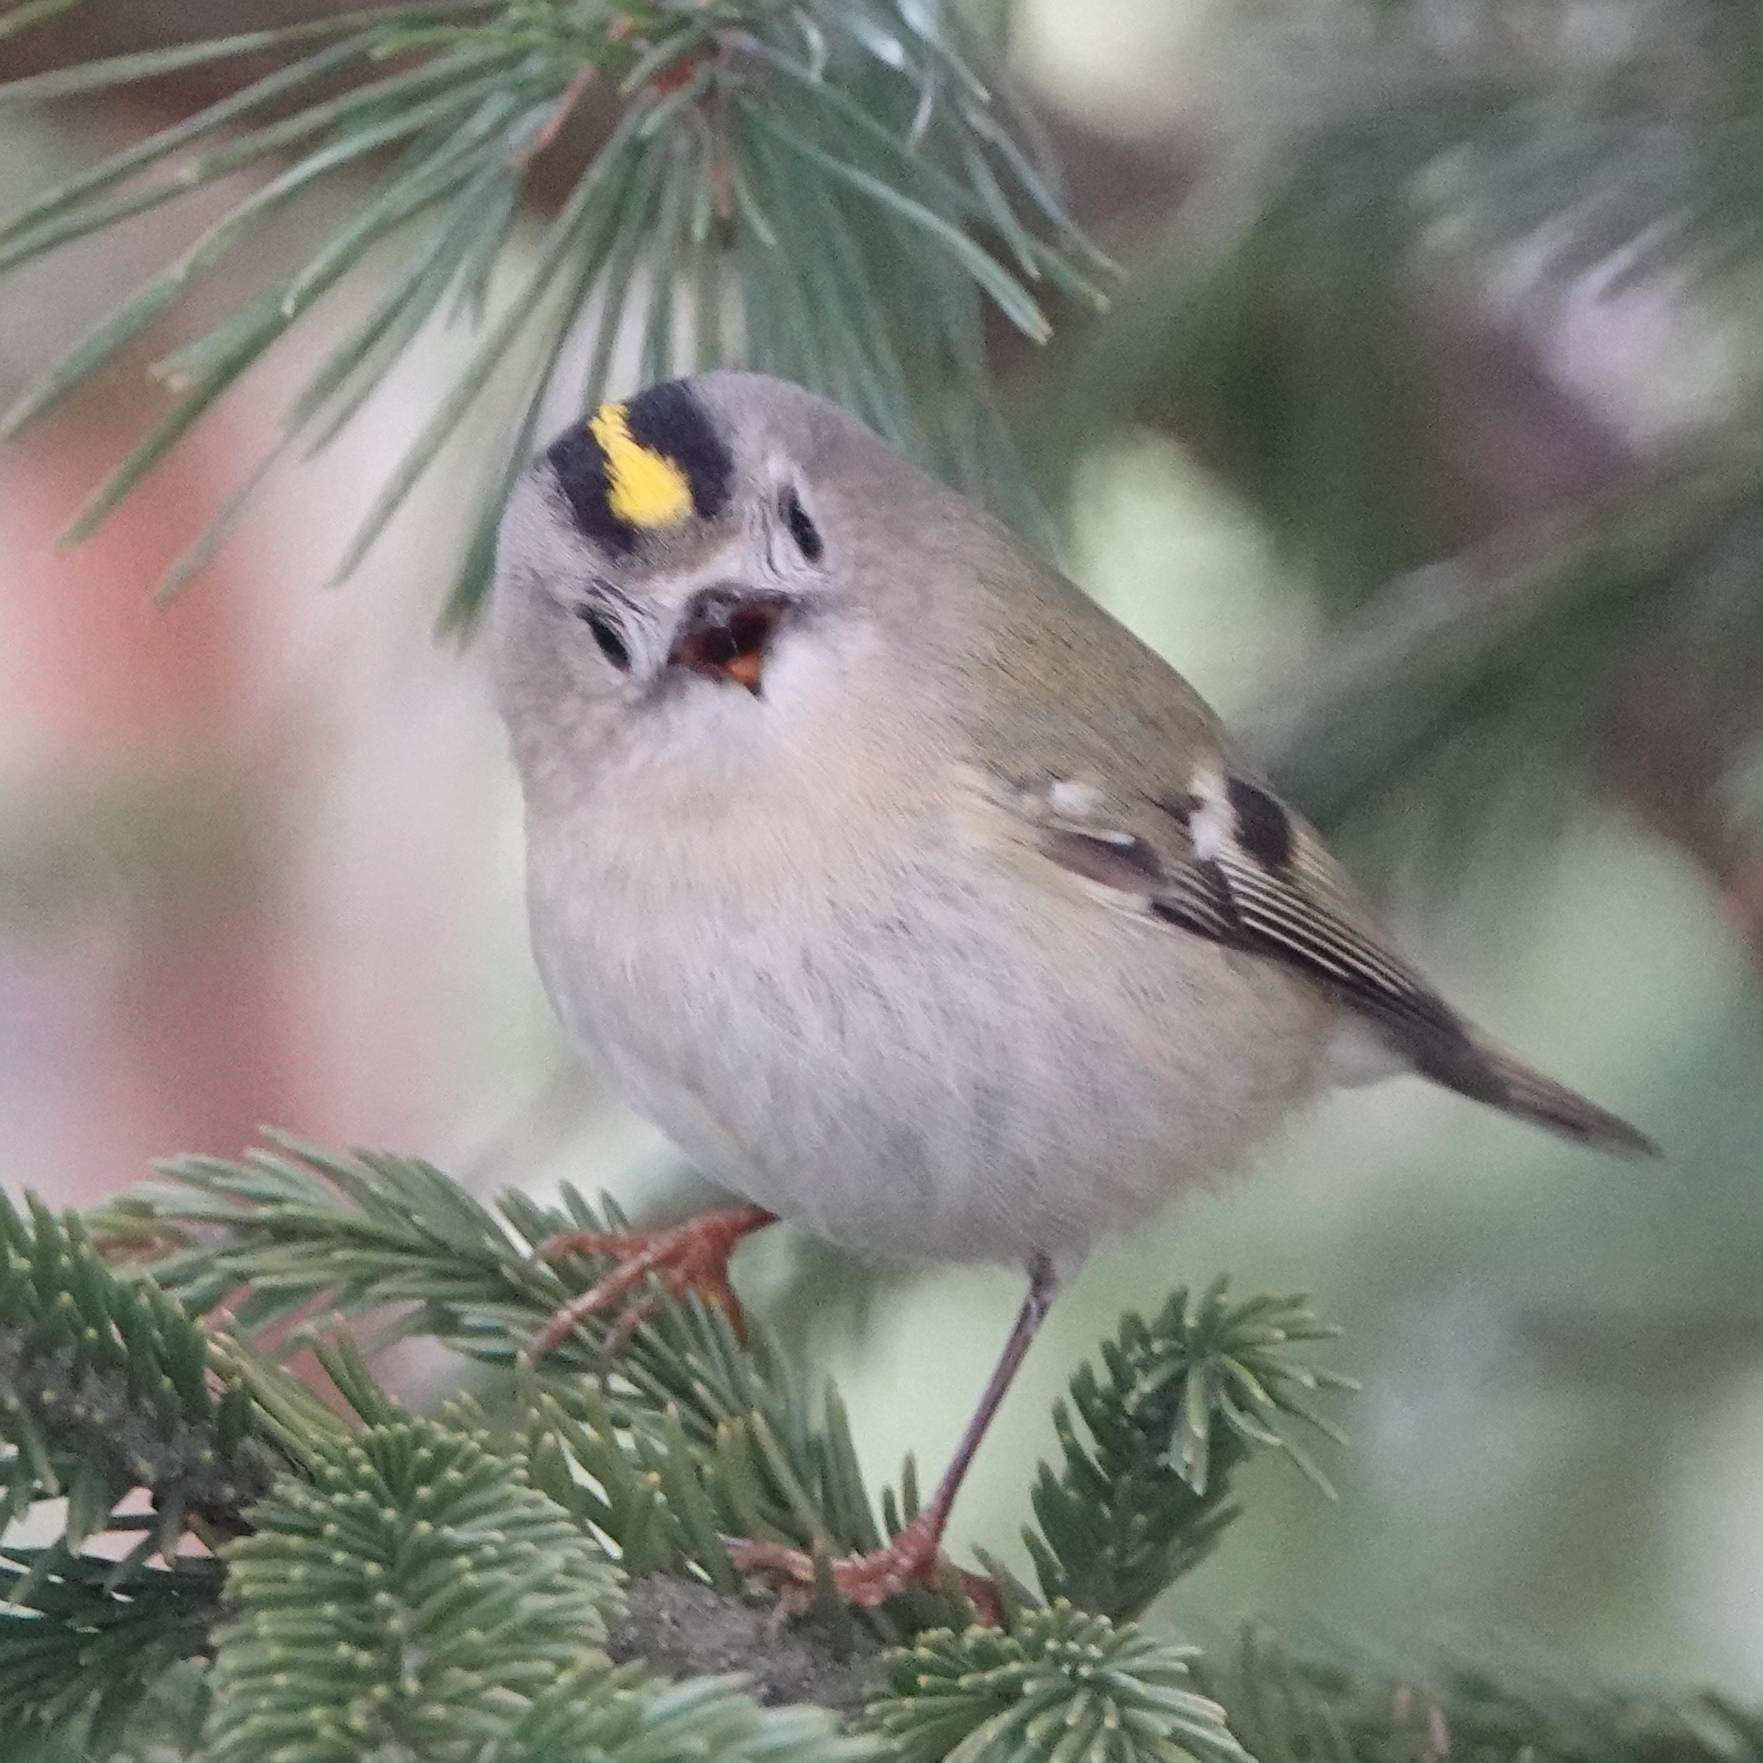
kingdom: Animalia
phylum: Chordata
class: Aves
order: Passeriformes
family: Regulidae
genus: Regulus
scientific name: Regulus regulus
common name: Goldcrest
